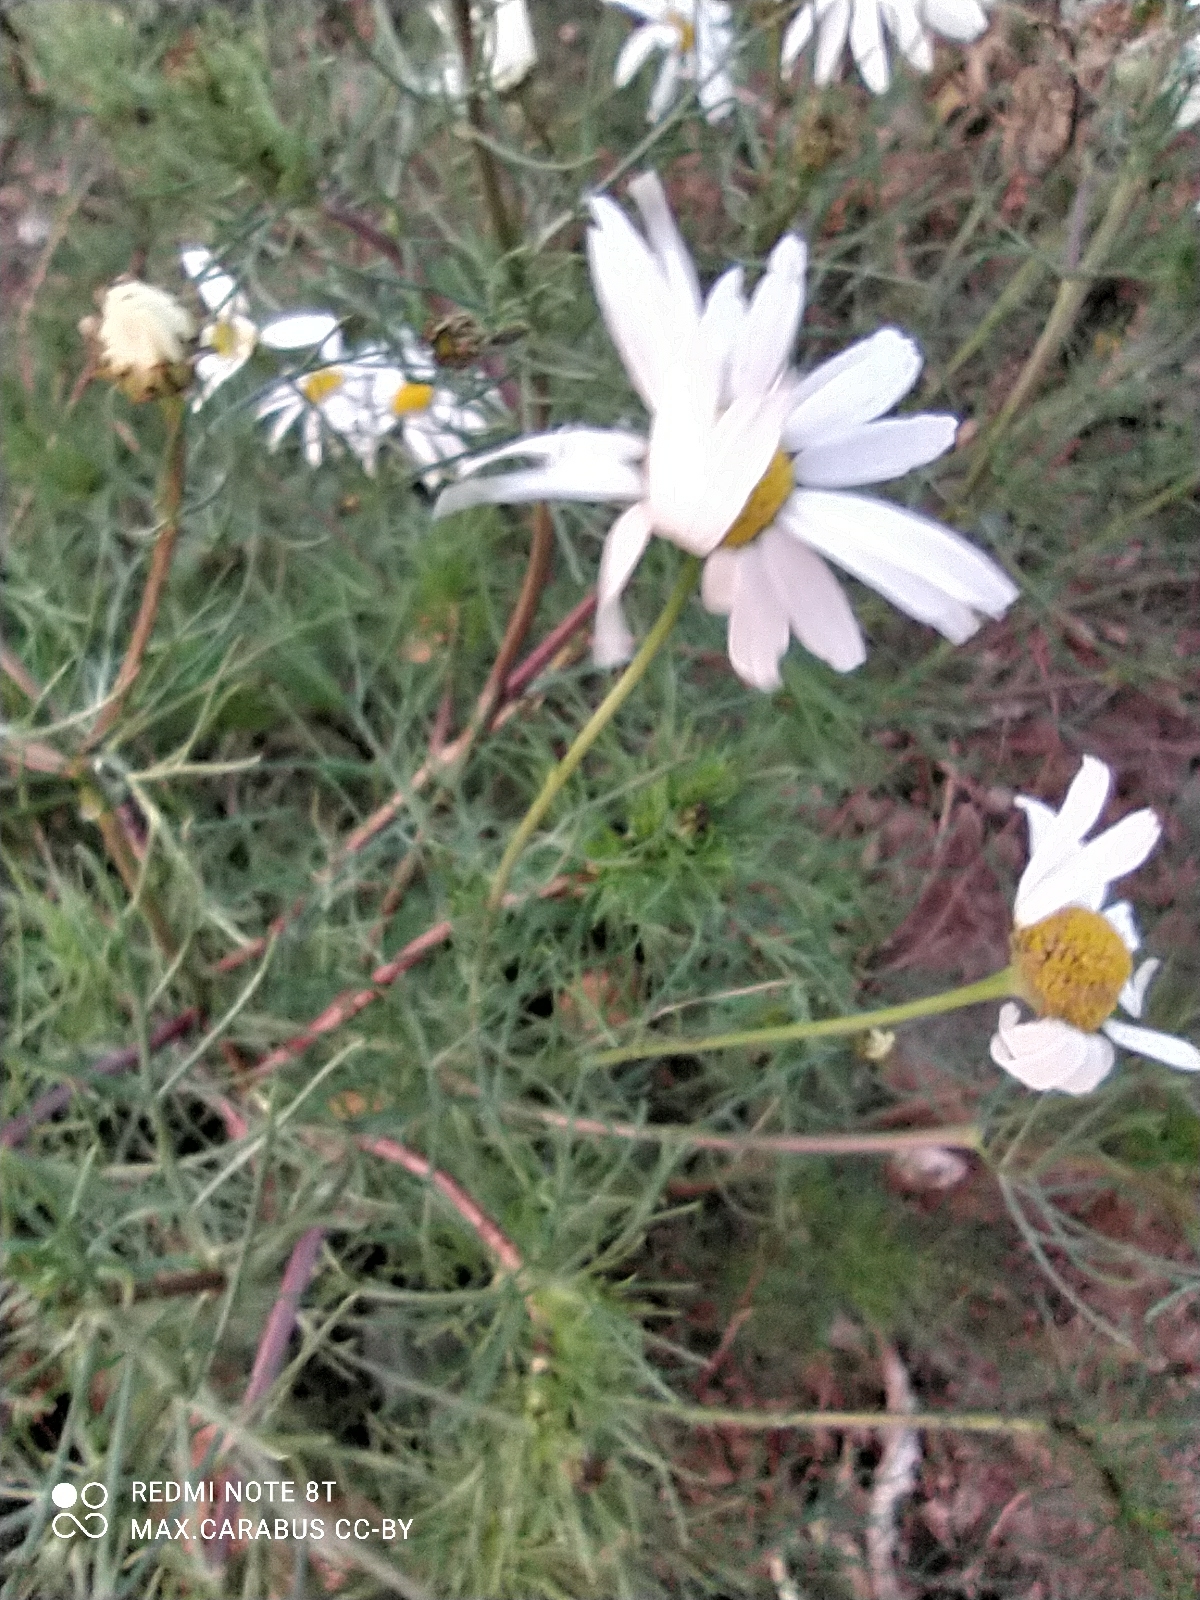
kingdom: Plantae
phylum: Tracheophyta
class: Magnoliopsida
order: Asterales
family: Asteraceae
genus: Tripleurospermum
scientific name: Tripleurospermum inodorum
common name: Scentless mayweed
